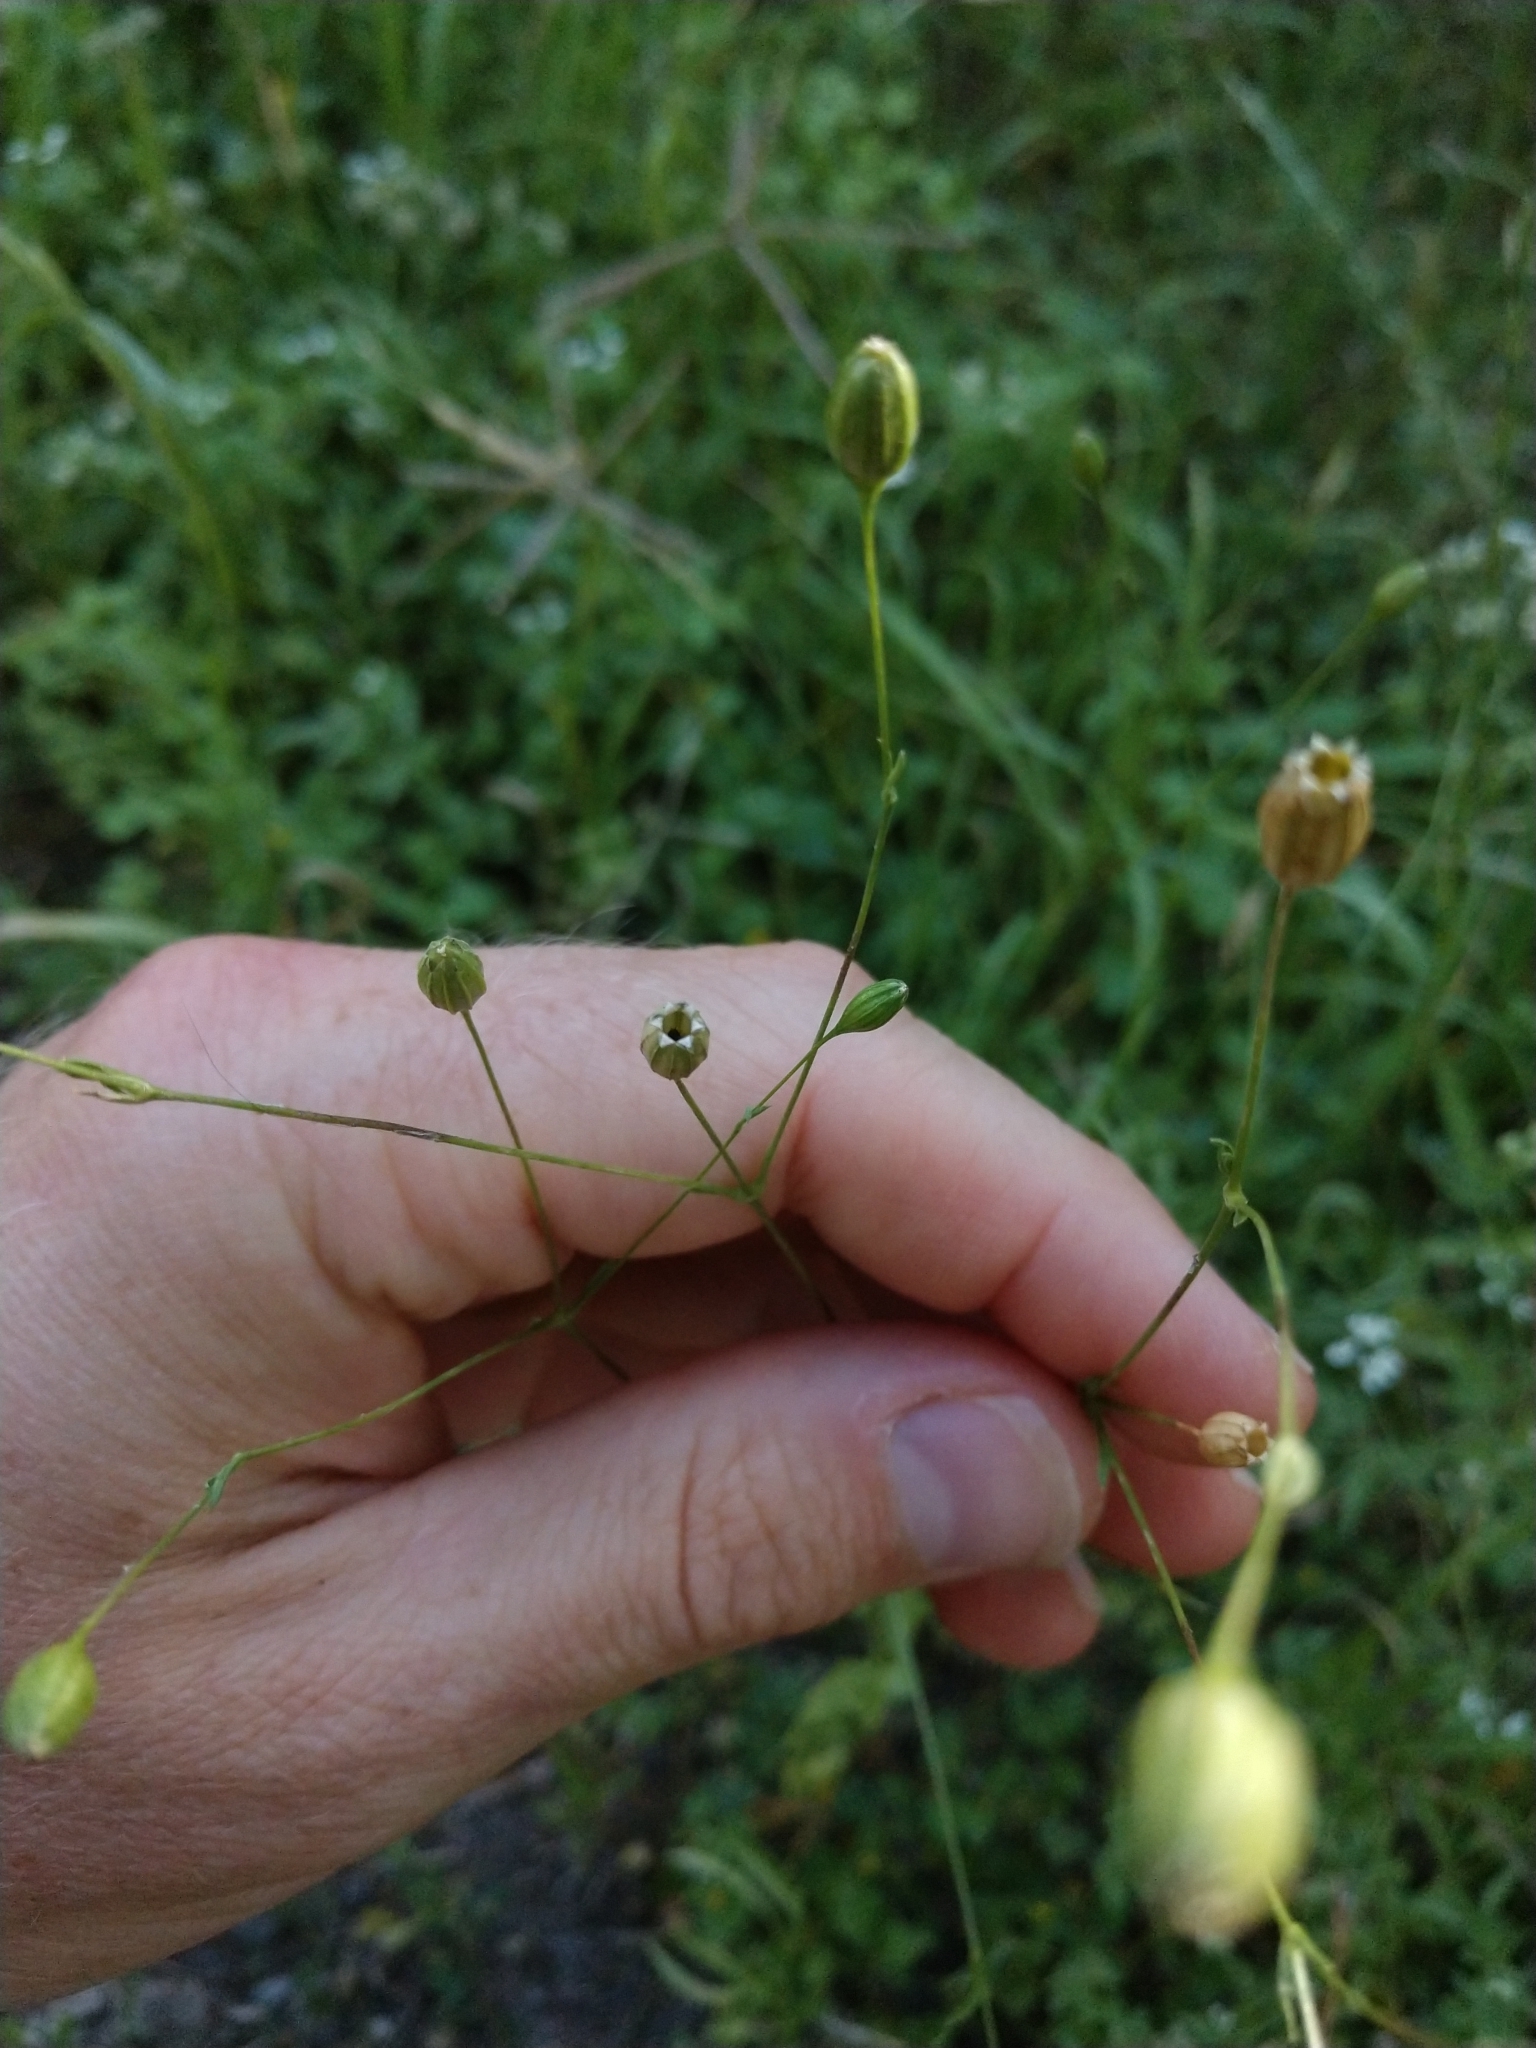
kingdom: Plantae
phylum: Tracheophyta
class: Magnoliopsida
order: Caryophyllales
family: Caryophyllaceae
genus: Silene
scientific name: Silene antirrhina
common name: Sleepy catchfly
